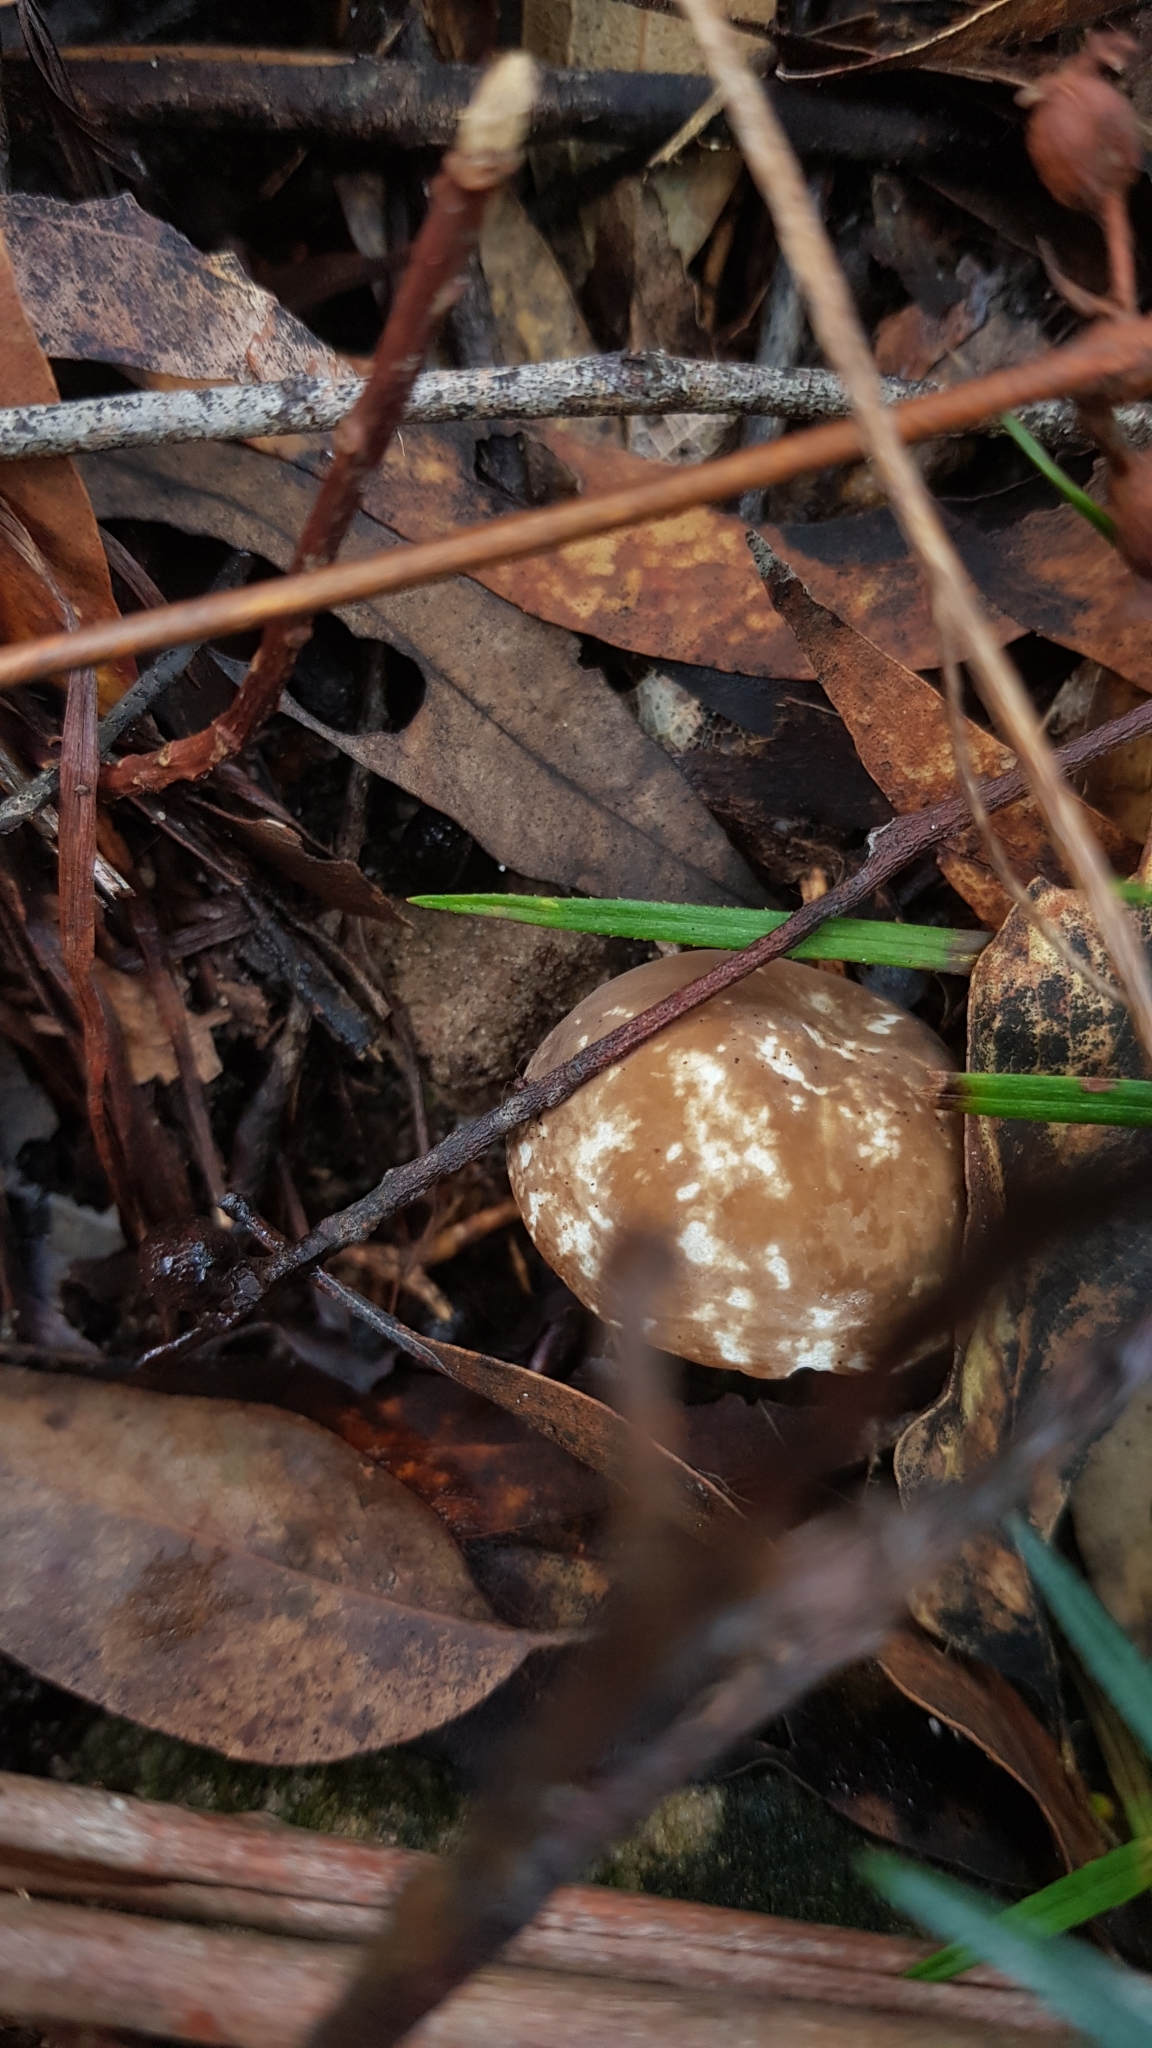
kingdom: Fungi
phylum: Basidiomycota
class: Agaricomycetes
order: Russulales
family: Russulaceae
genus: Lactifluus
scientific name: Lactifluus sepiaceus
